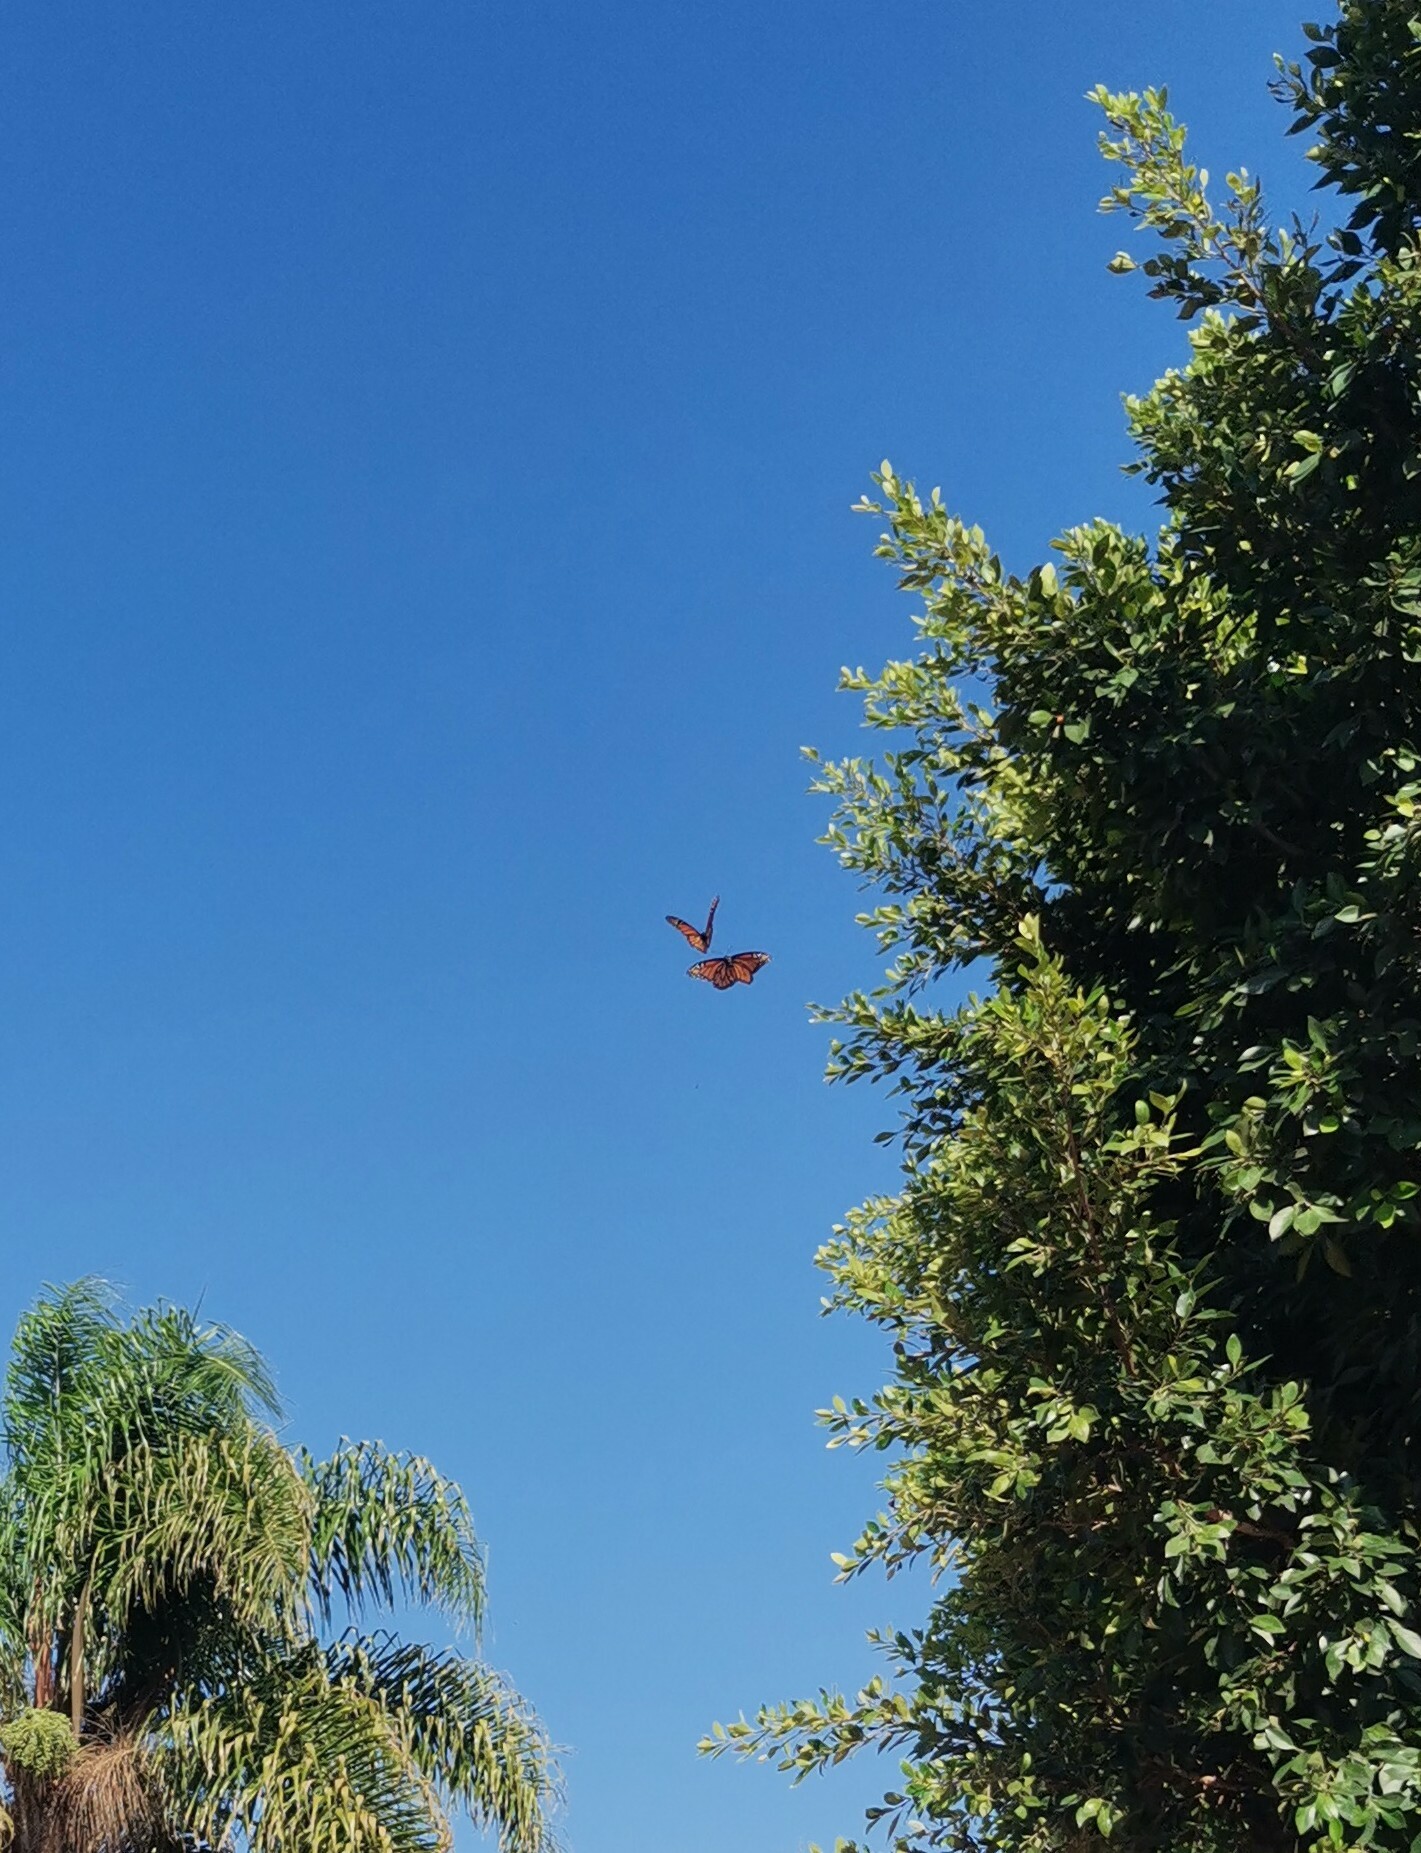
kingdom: Animalia
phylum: Arthropoda
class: Insecta
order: Lepidoptera
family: Nymphalidae
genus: Danaus
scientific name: Danaus plexippus
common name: Monarch
